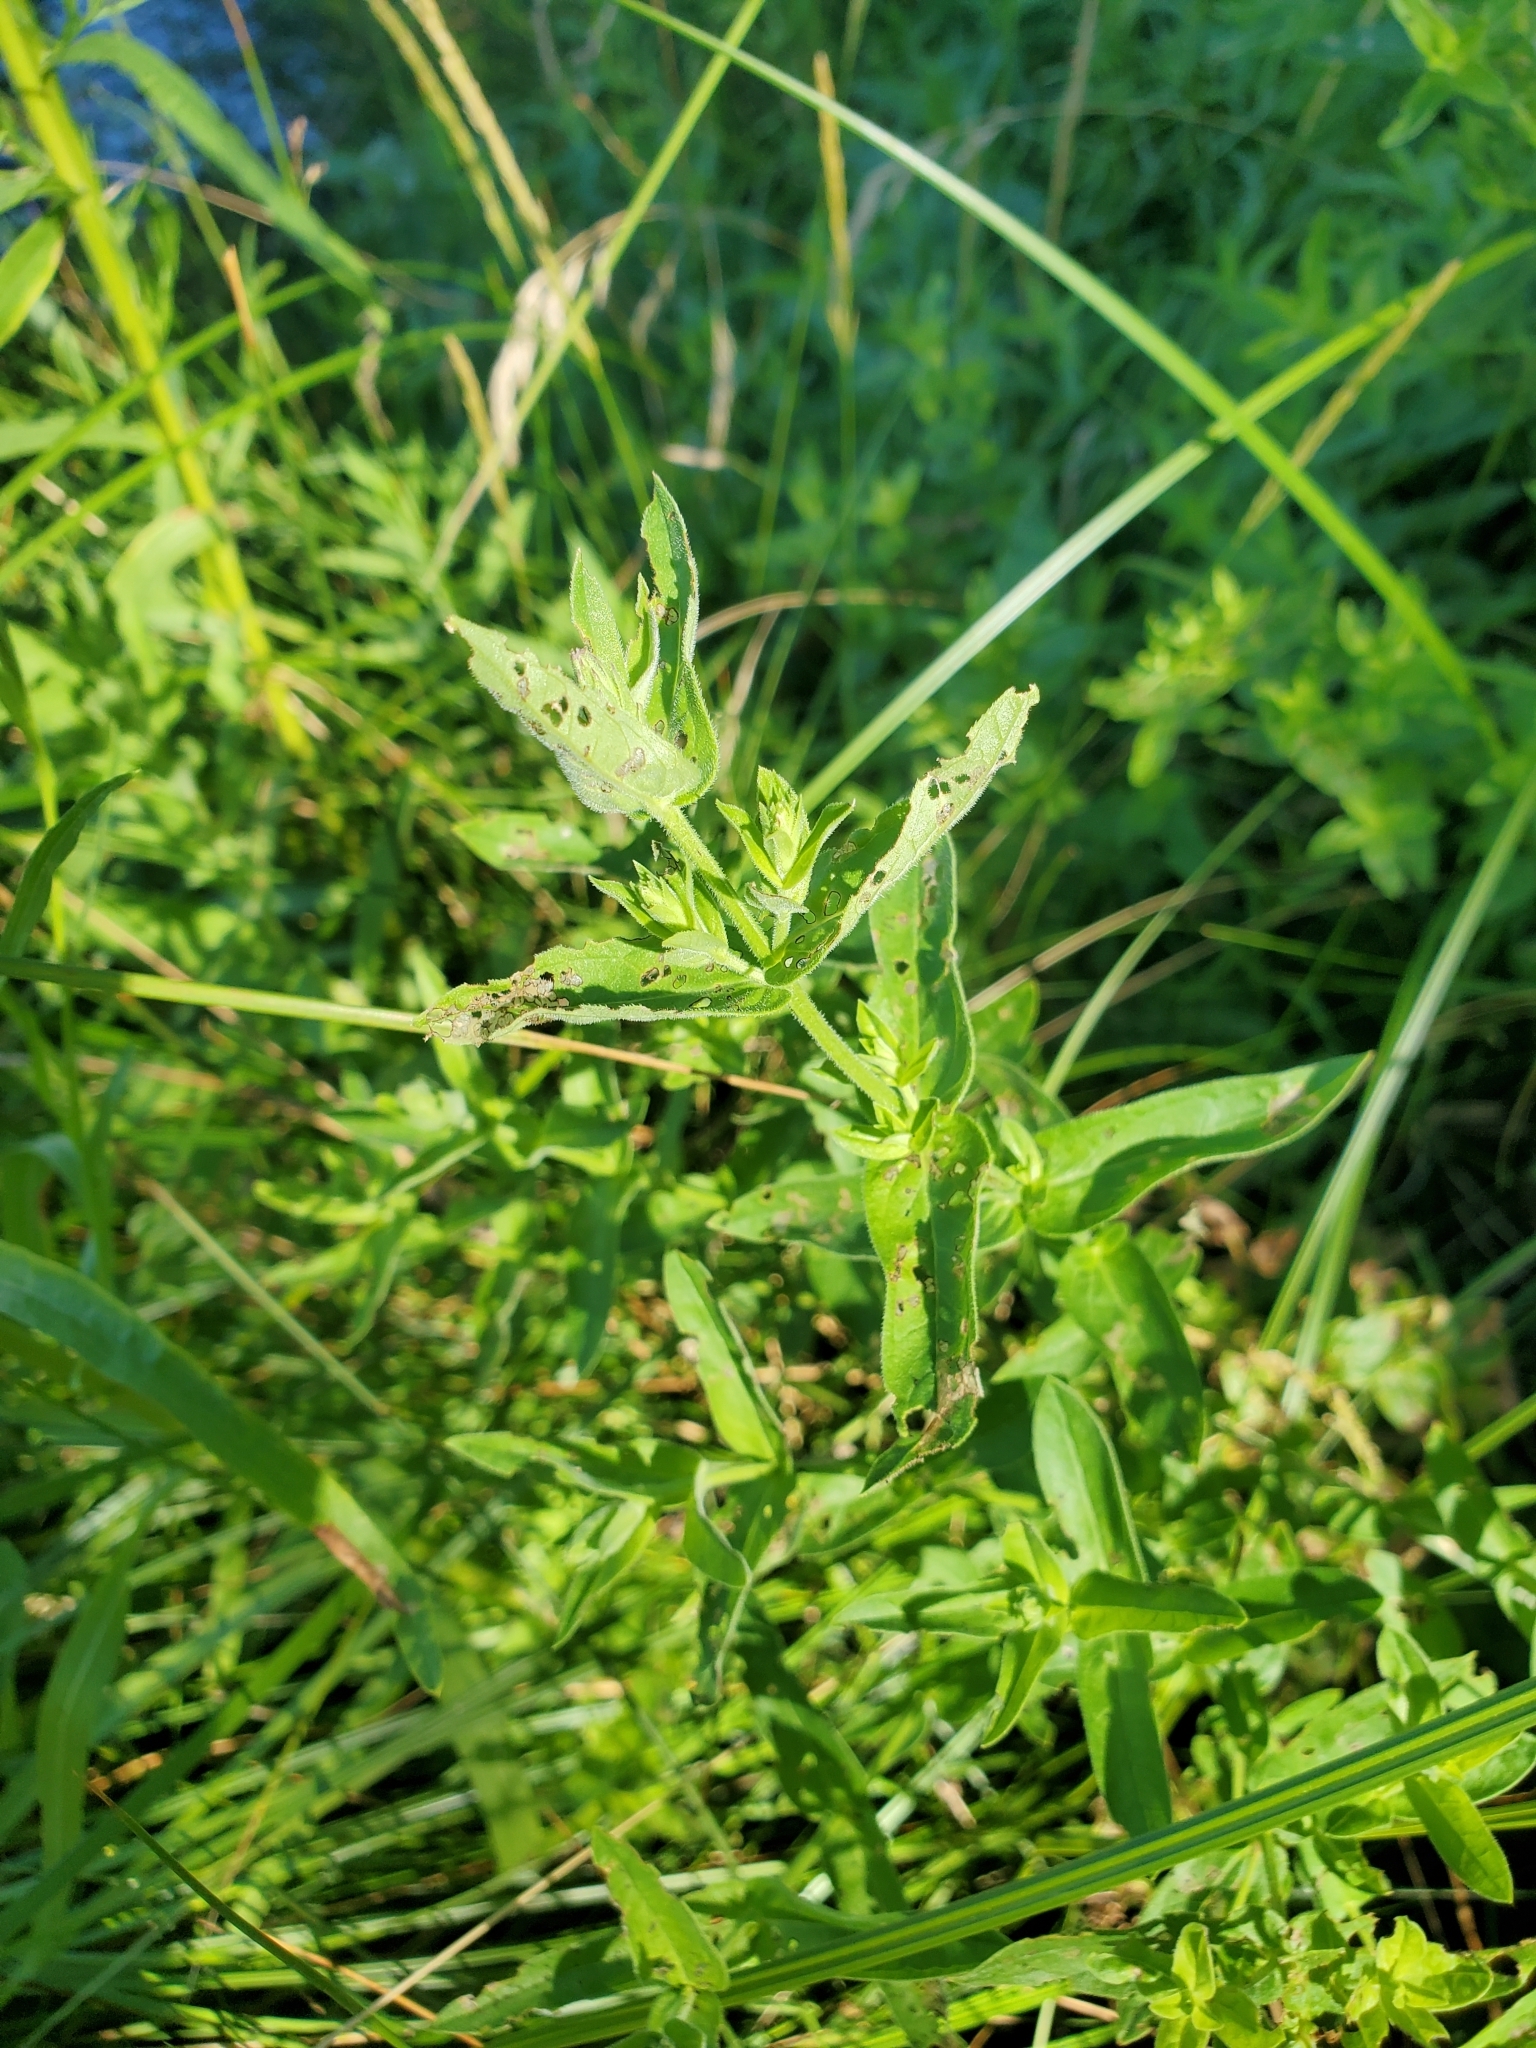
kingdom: Plantae
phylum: Tracheophyta
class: Magnoliopsida
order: Myrtales
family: Lythraceae
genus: Lythrum
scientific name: Lythrum salicaria
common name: Purple loosestrife
